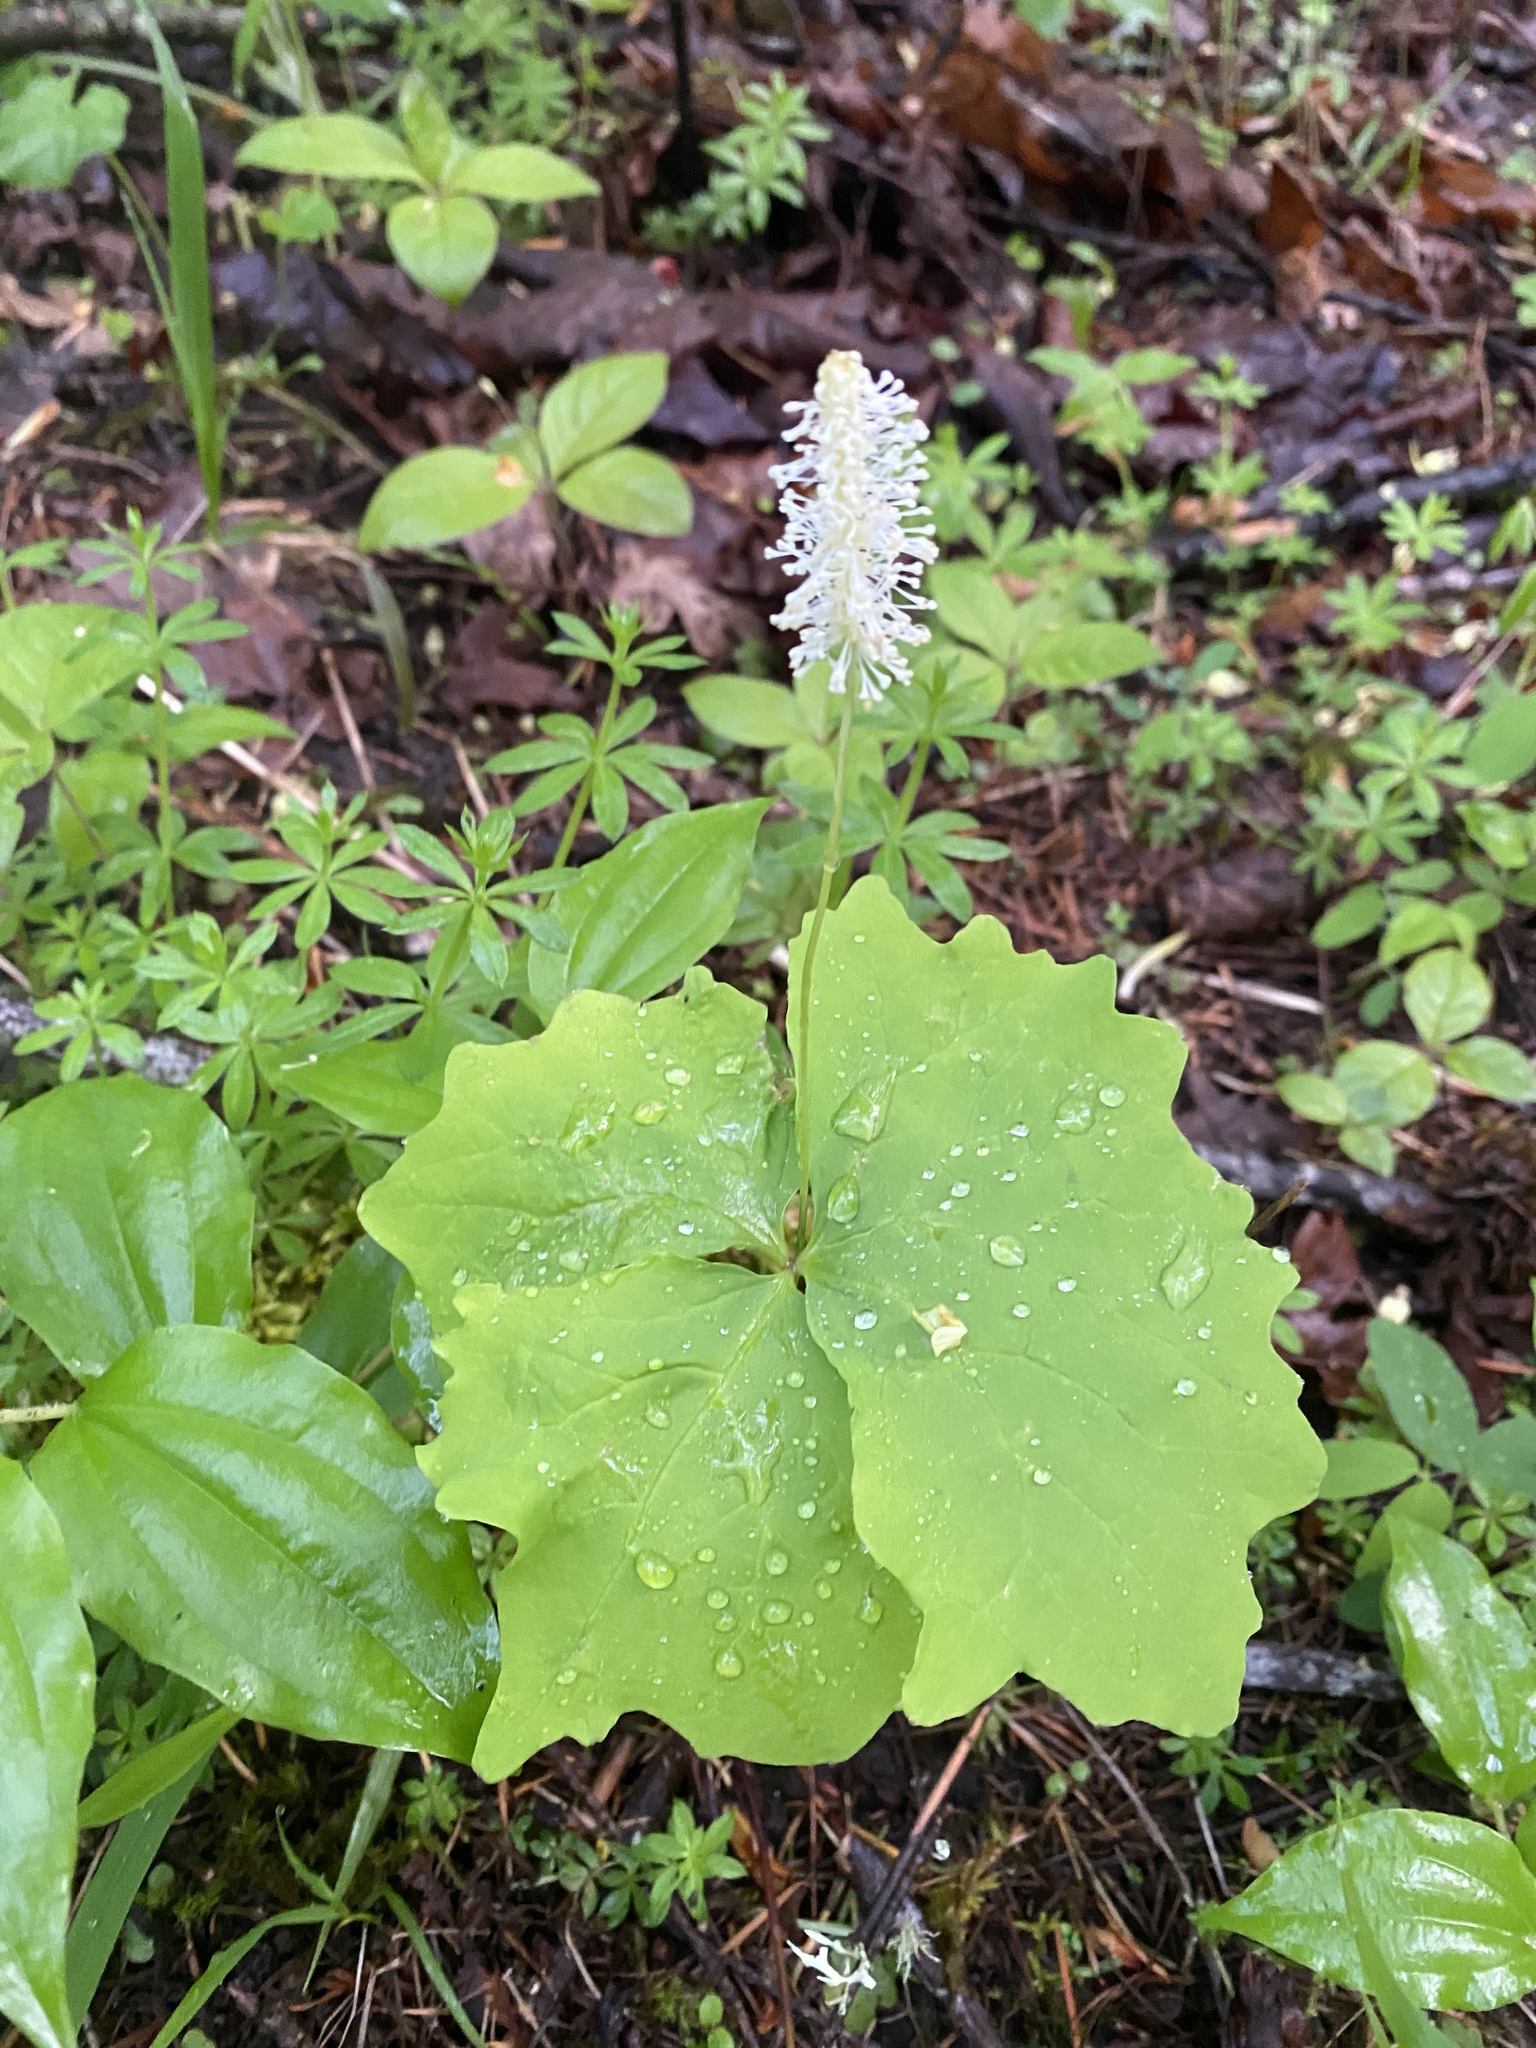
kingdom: Plantae
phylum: Tracheophyta
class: Magnoliopsida
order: Ranunculales
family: Berberidaceae
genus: Achlys
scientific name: Achlys triphylla
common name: Vanilla-leaf
